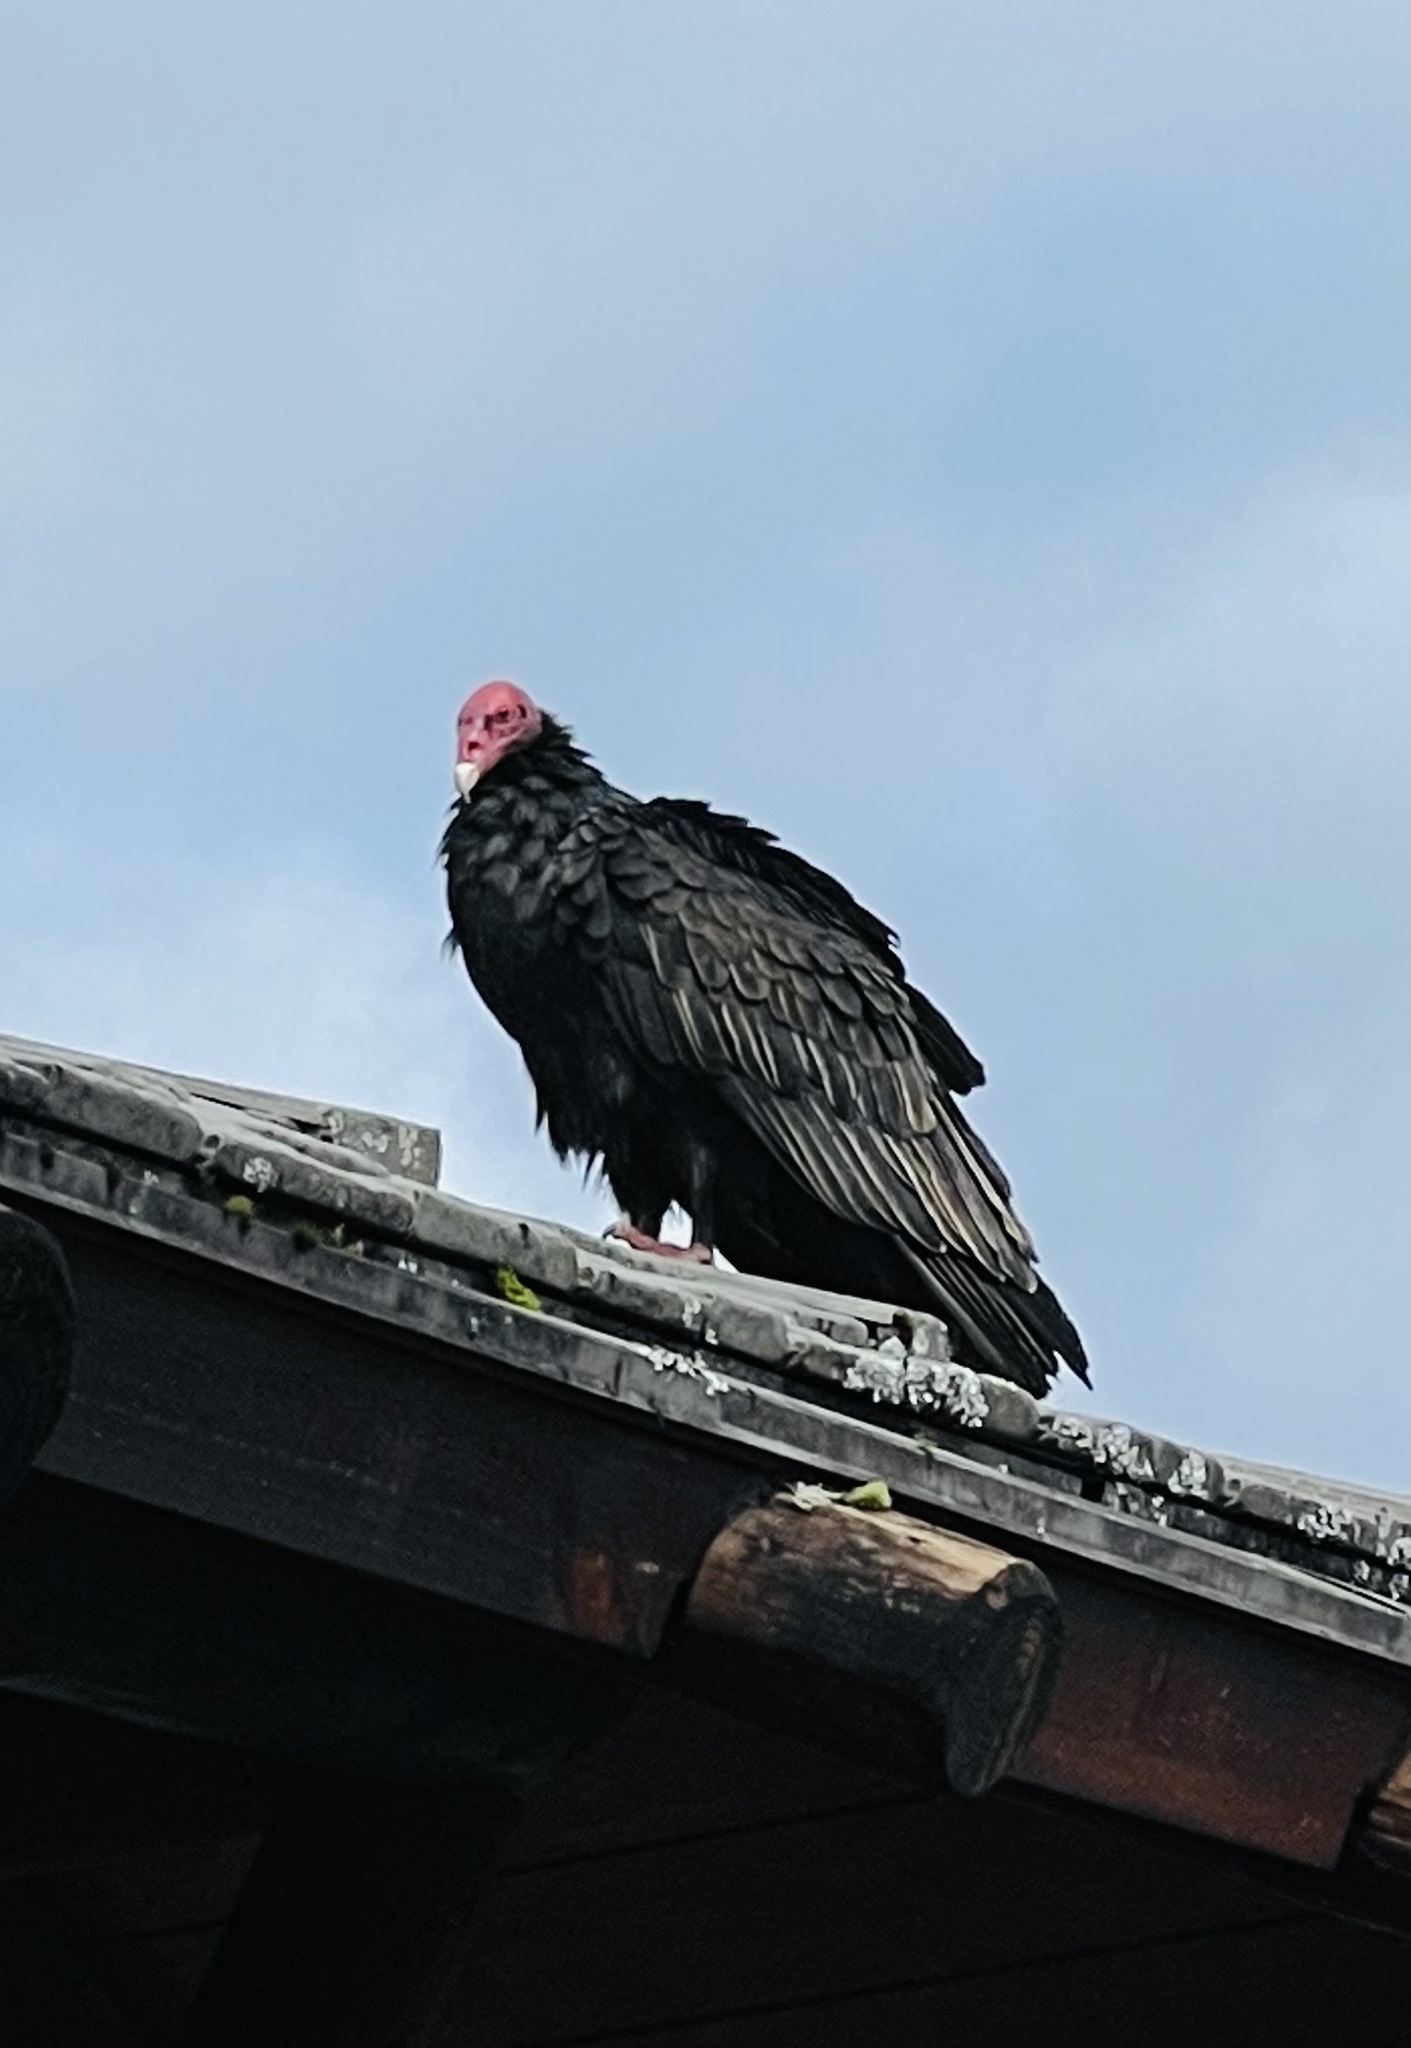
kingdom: Animalia
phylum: Chordata
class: Aves
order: Accipitriformes
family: Cathartidae
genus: Cathartes
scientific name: Cathartes aura
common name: Turkey vulture
